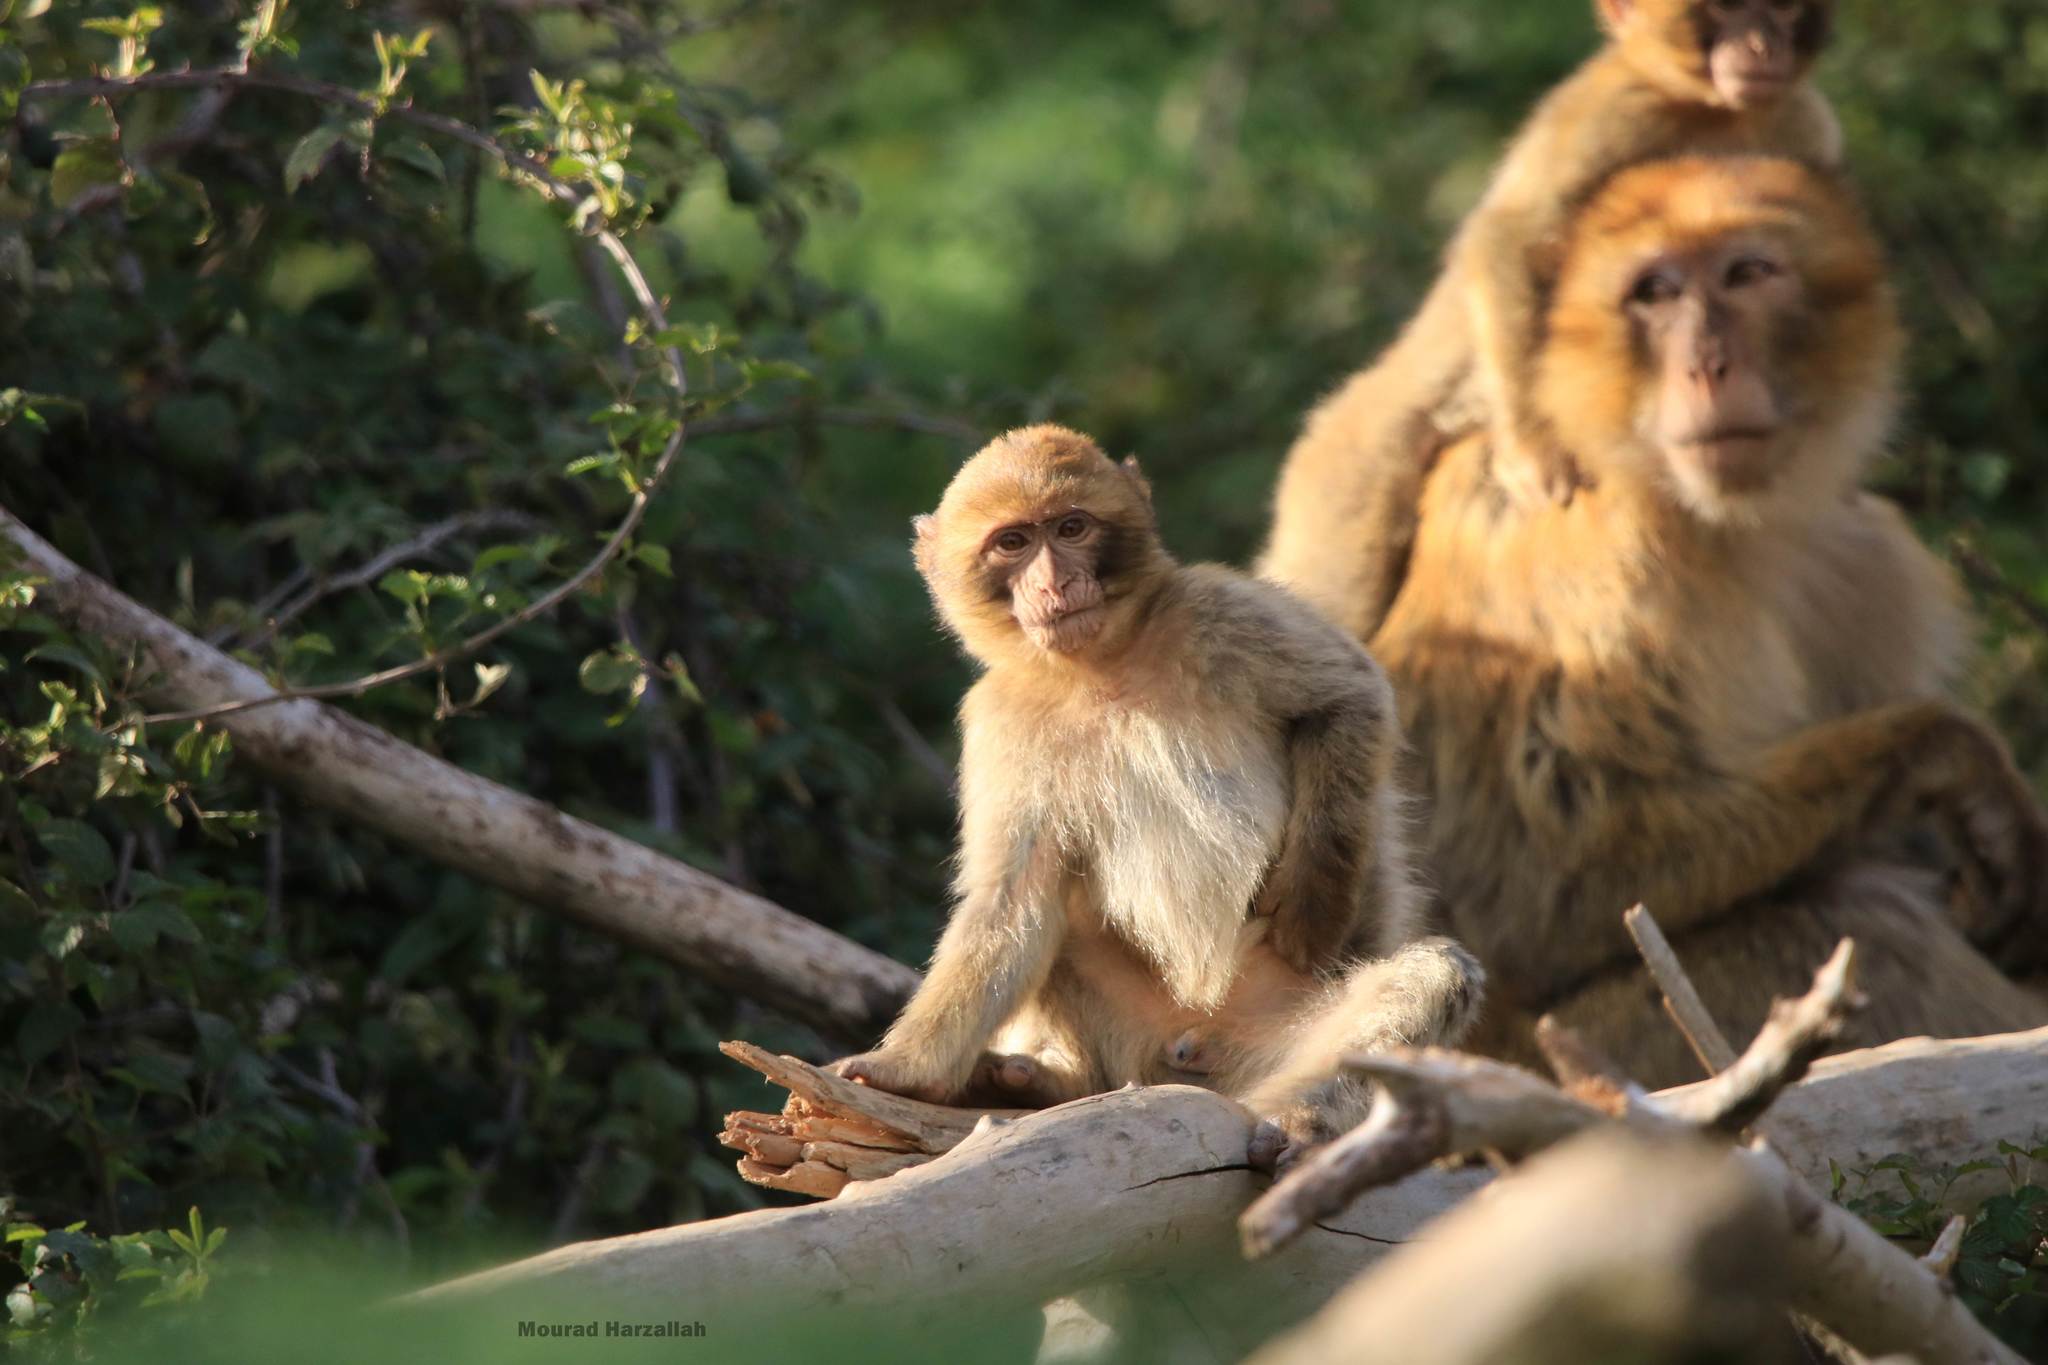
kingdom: Animalia
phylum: Chordata
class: Mammalia
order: Primates
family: Cercopithecidae
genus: Macaca
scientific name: Macaca sylvanus
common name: Barbary macaque
